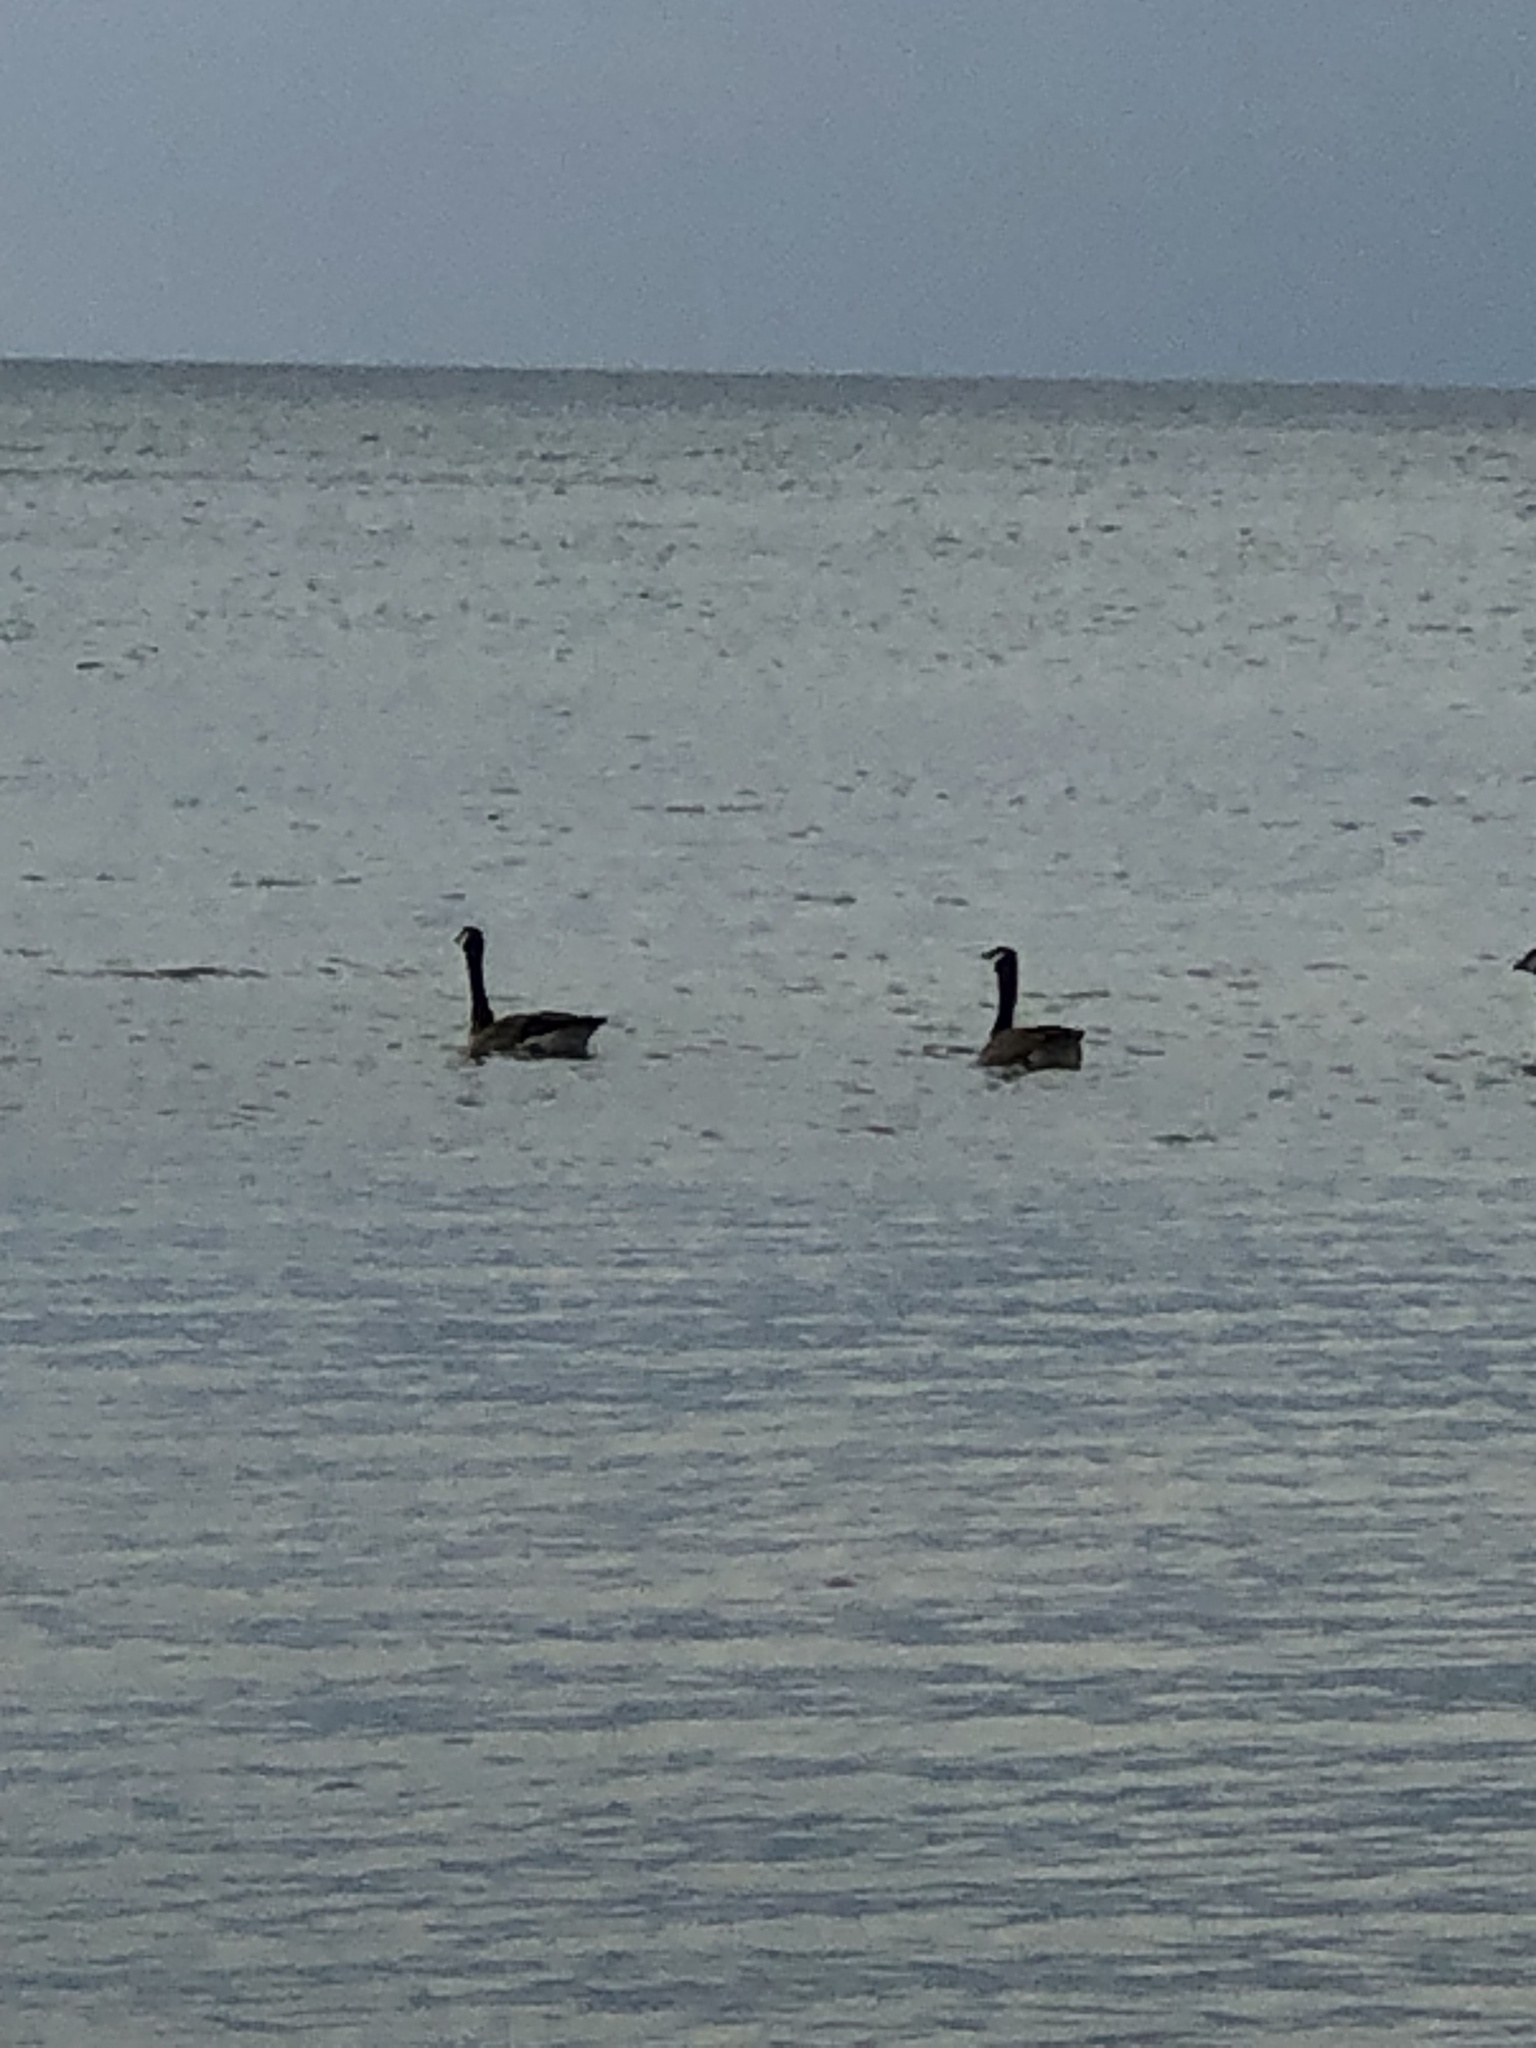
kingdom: Animalia
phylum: Chordata
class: Aves
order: Anseriformes
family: Anatidae
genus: Branta
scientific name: Branta canadensis
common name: Canada goose
